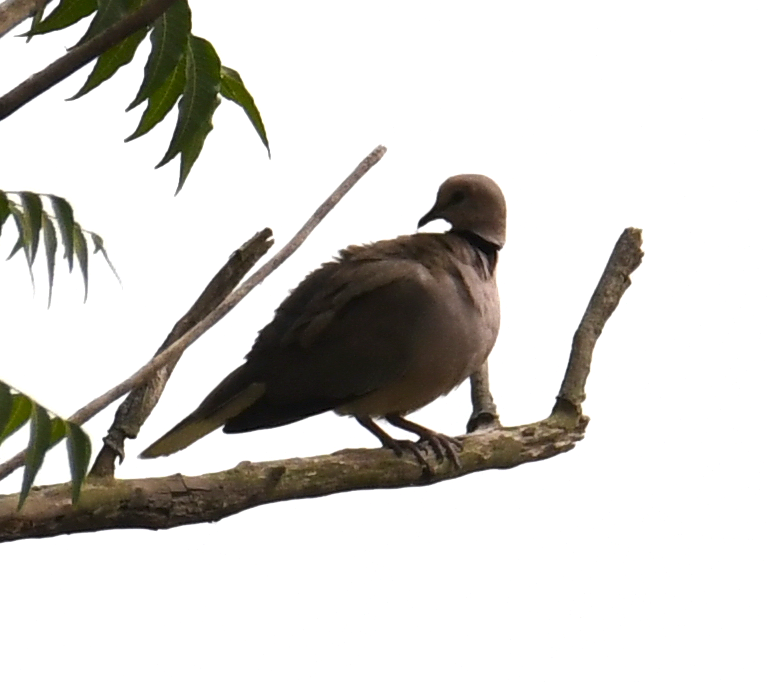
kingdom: Animalia
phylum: Chordata
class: Aves
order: Columbiformes
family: Columbidae
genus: Streptopelia
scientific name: Streptopelia vinacea
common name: Vinaceous dove
